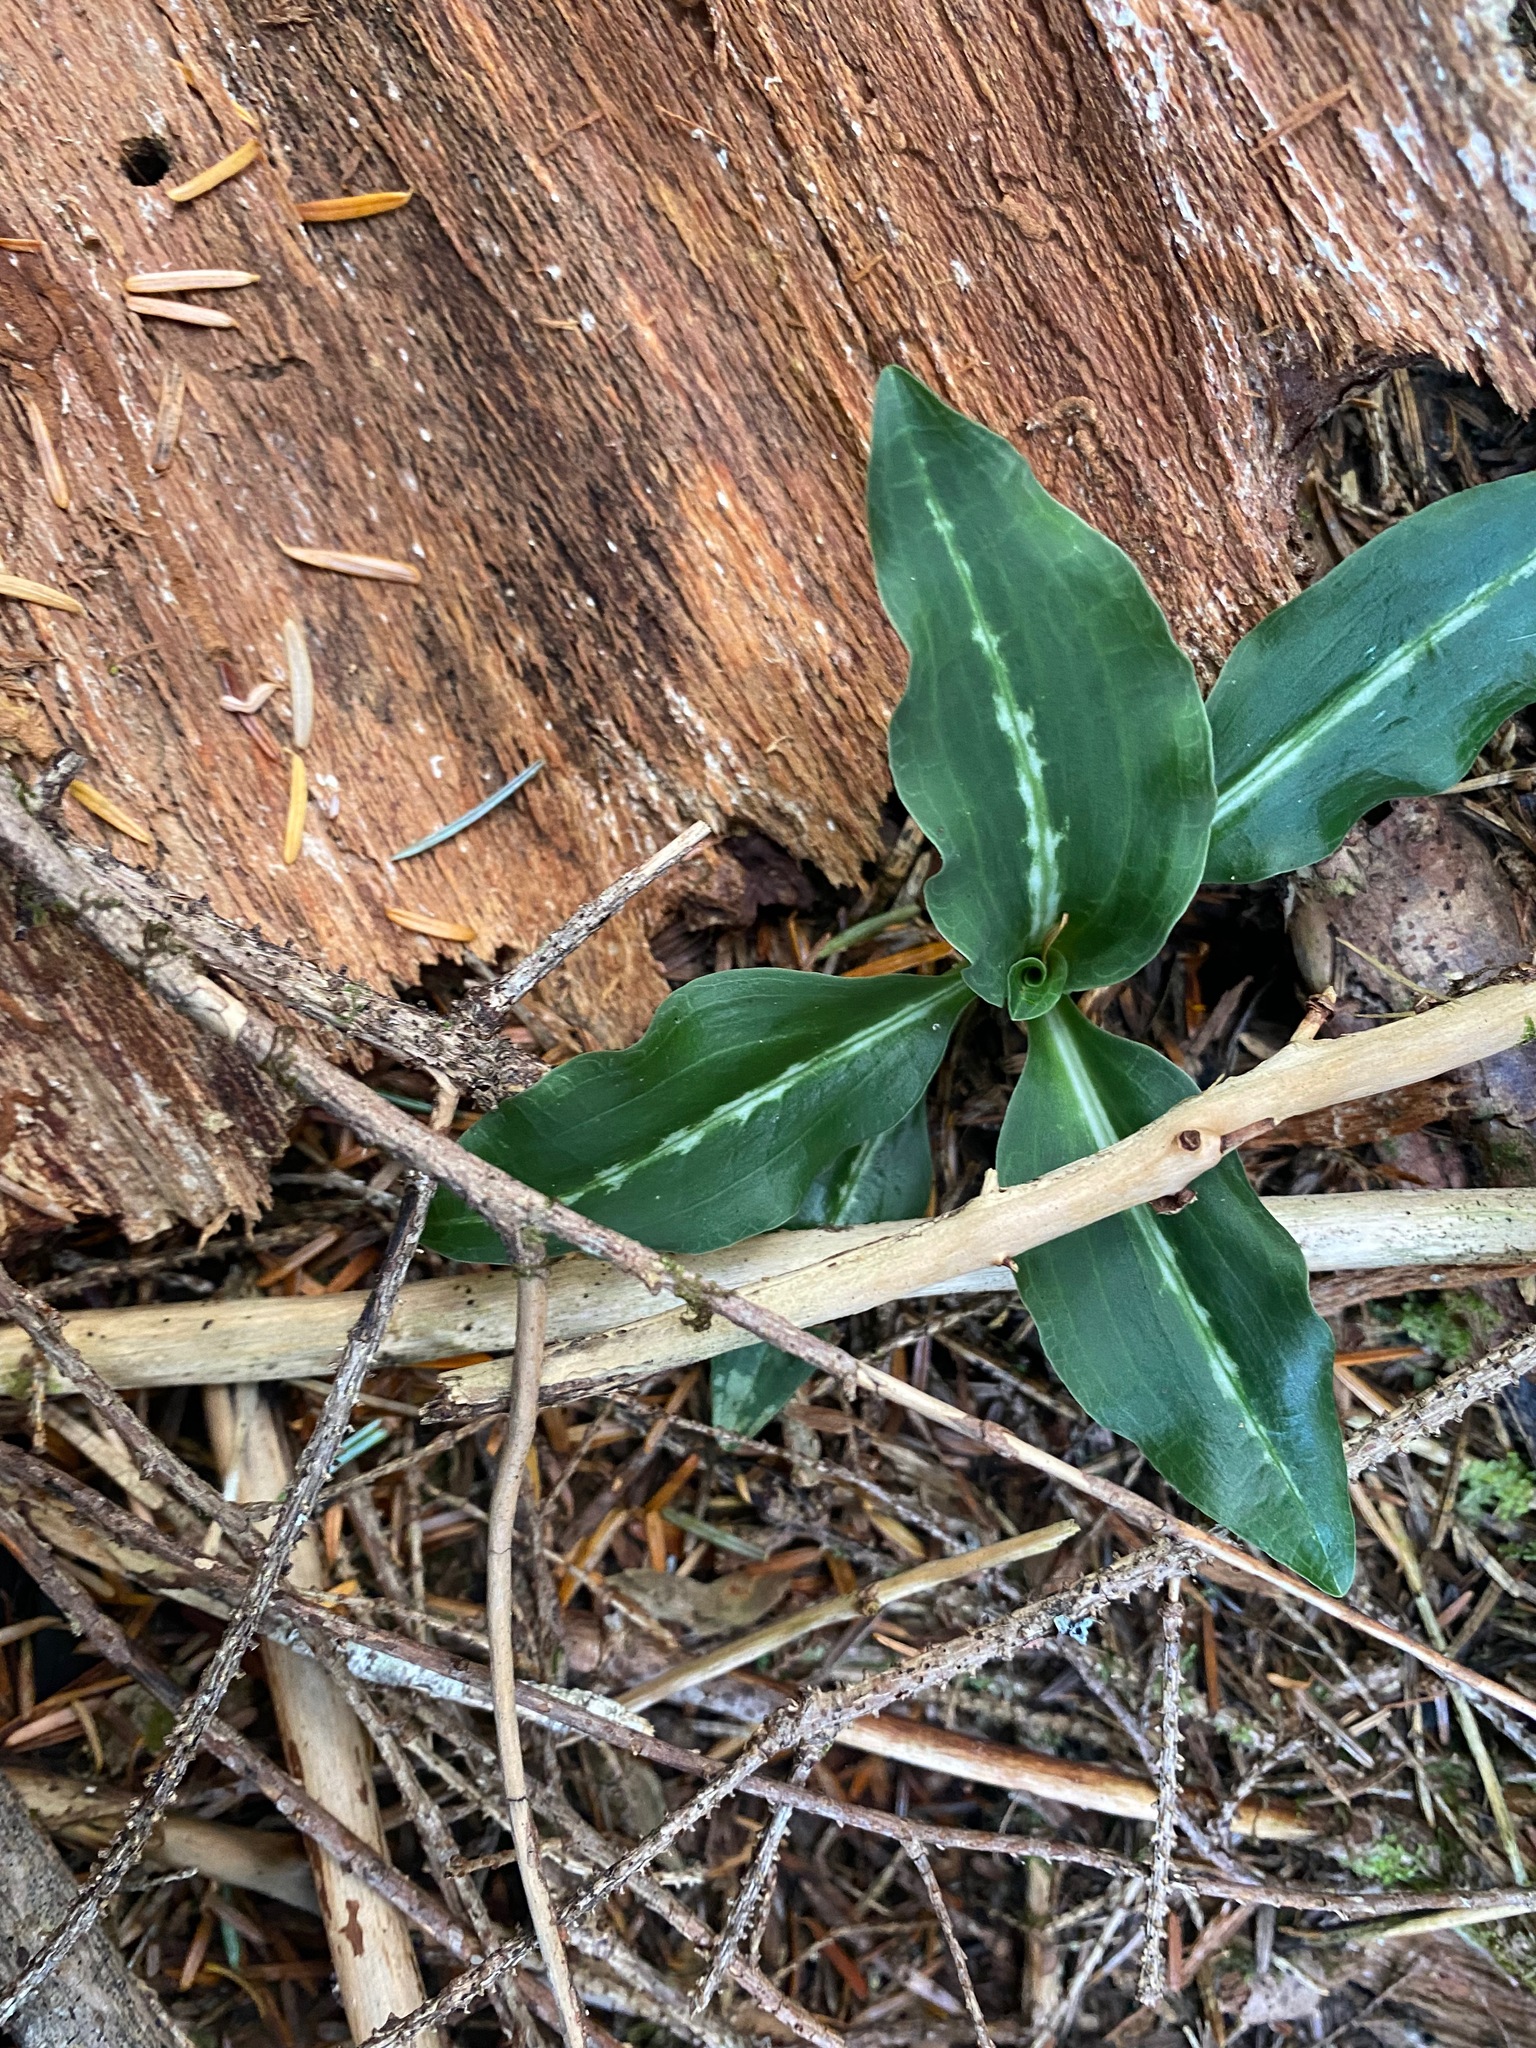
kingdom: Plantae
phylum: Tracheophyta
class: Liliopsida
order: Asparagales
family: Orchidaceae
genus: Goodyera
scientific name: Goodyera oblongifolia
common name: Giant rattlesnake-plantain
